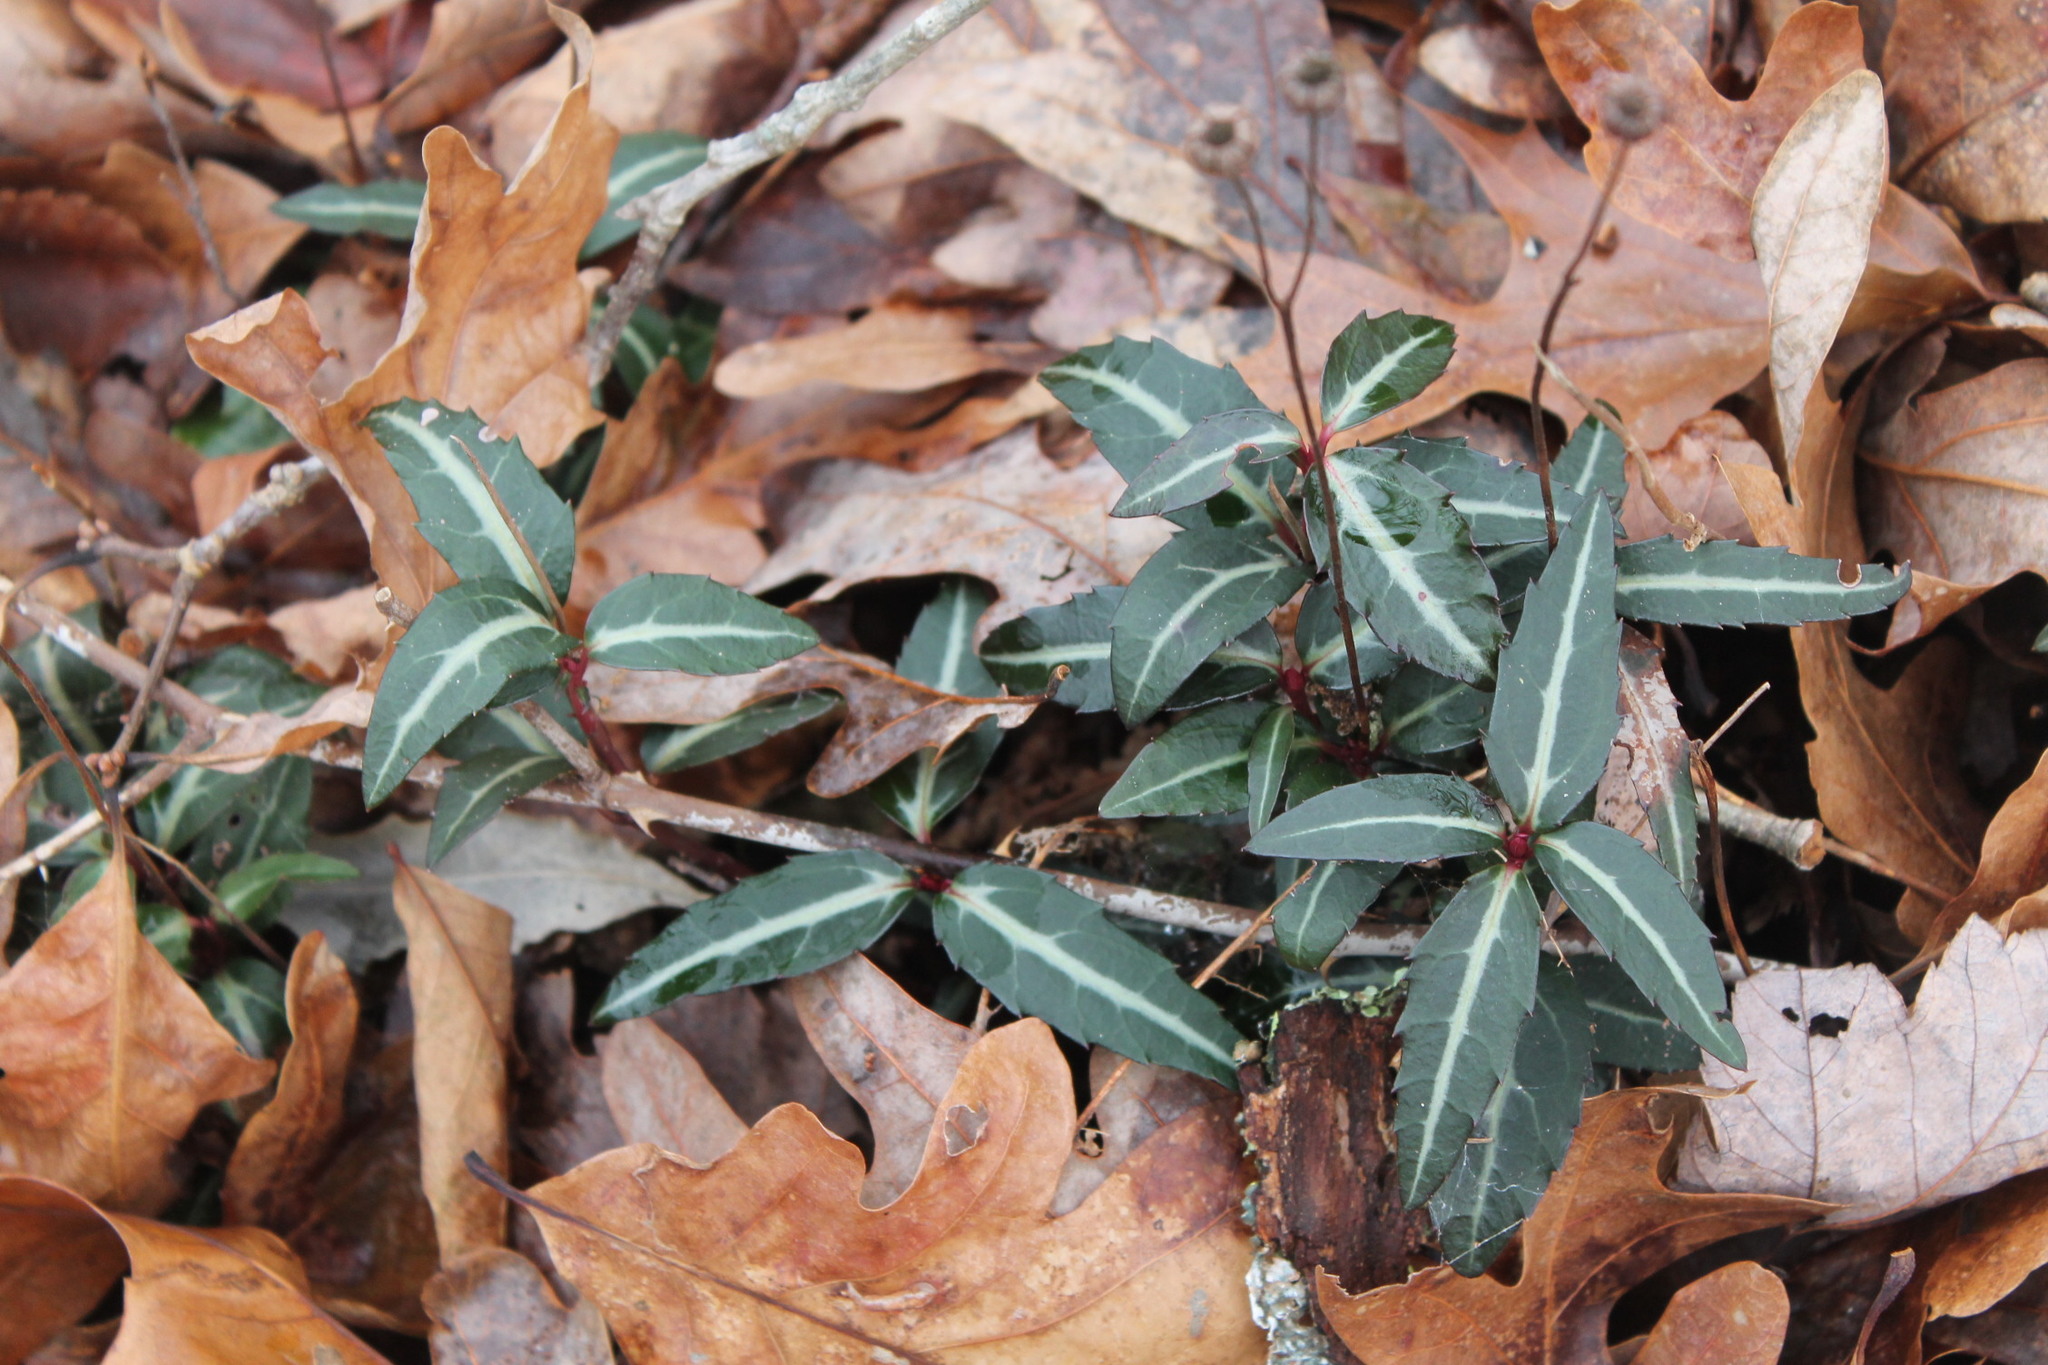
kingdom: Plantae
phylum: Tracheophyta
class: Magnoliopsida
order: Ericales
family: Ericaceae
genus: Chimaphila
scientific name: Chimaphila maculata
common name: Spotted pipsissewa
